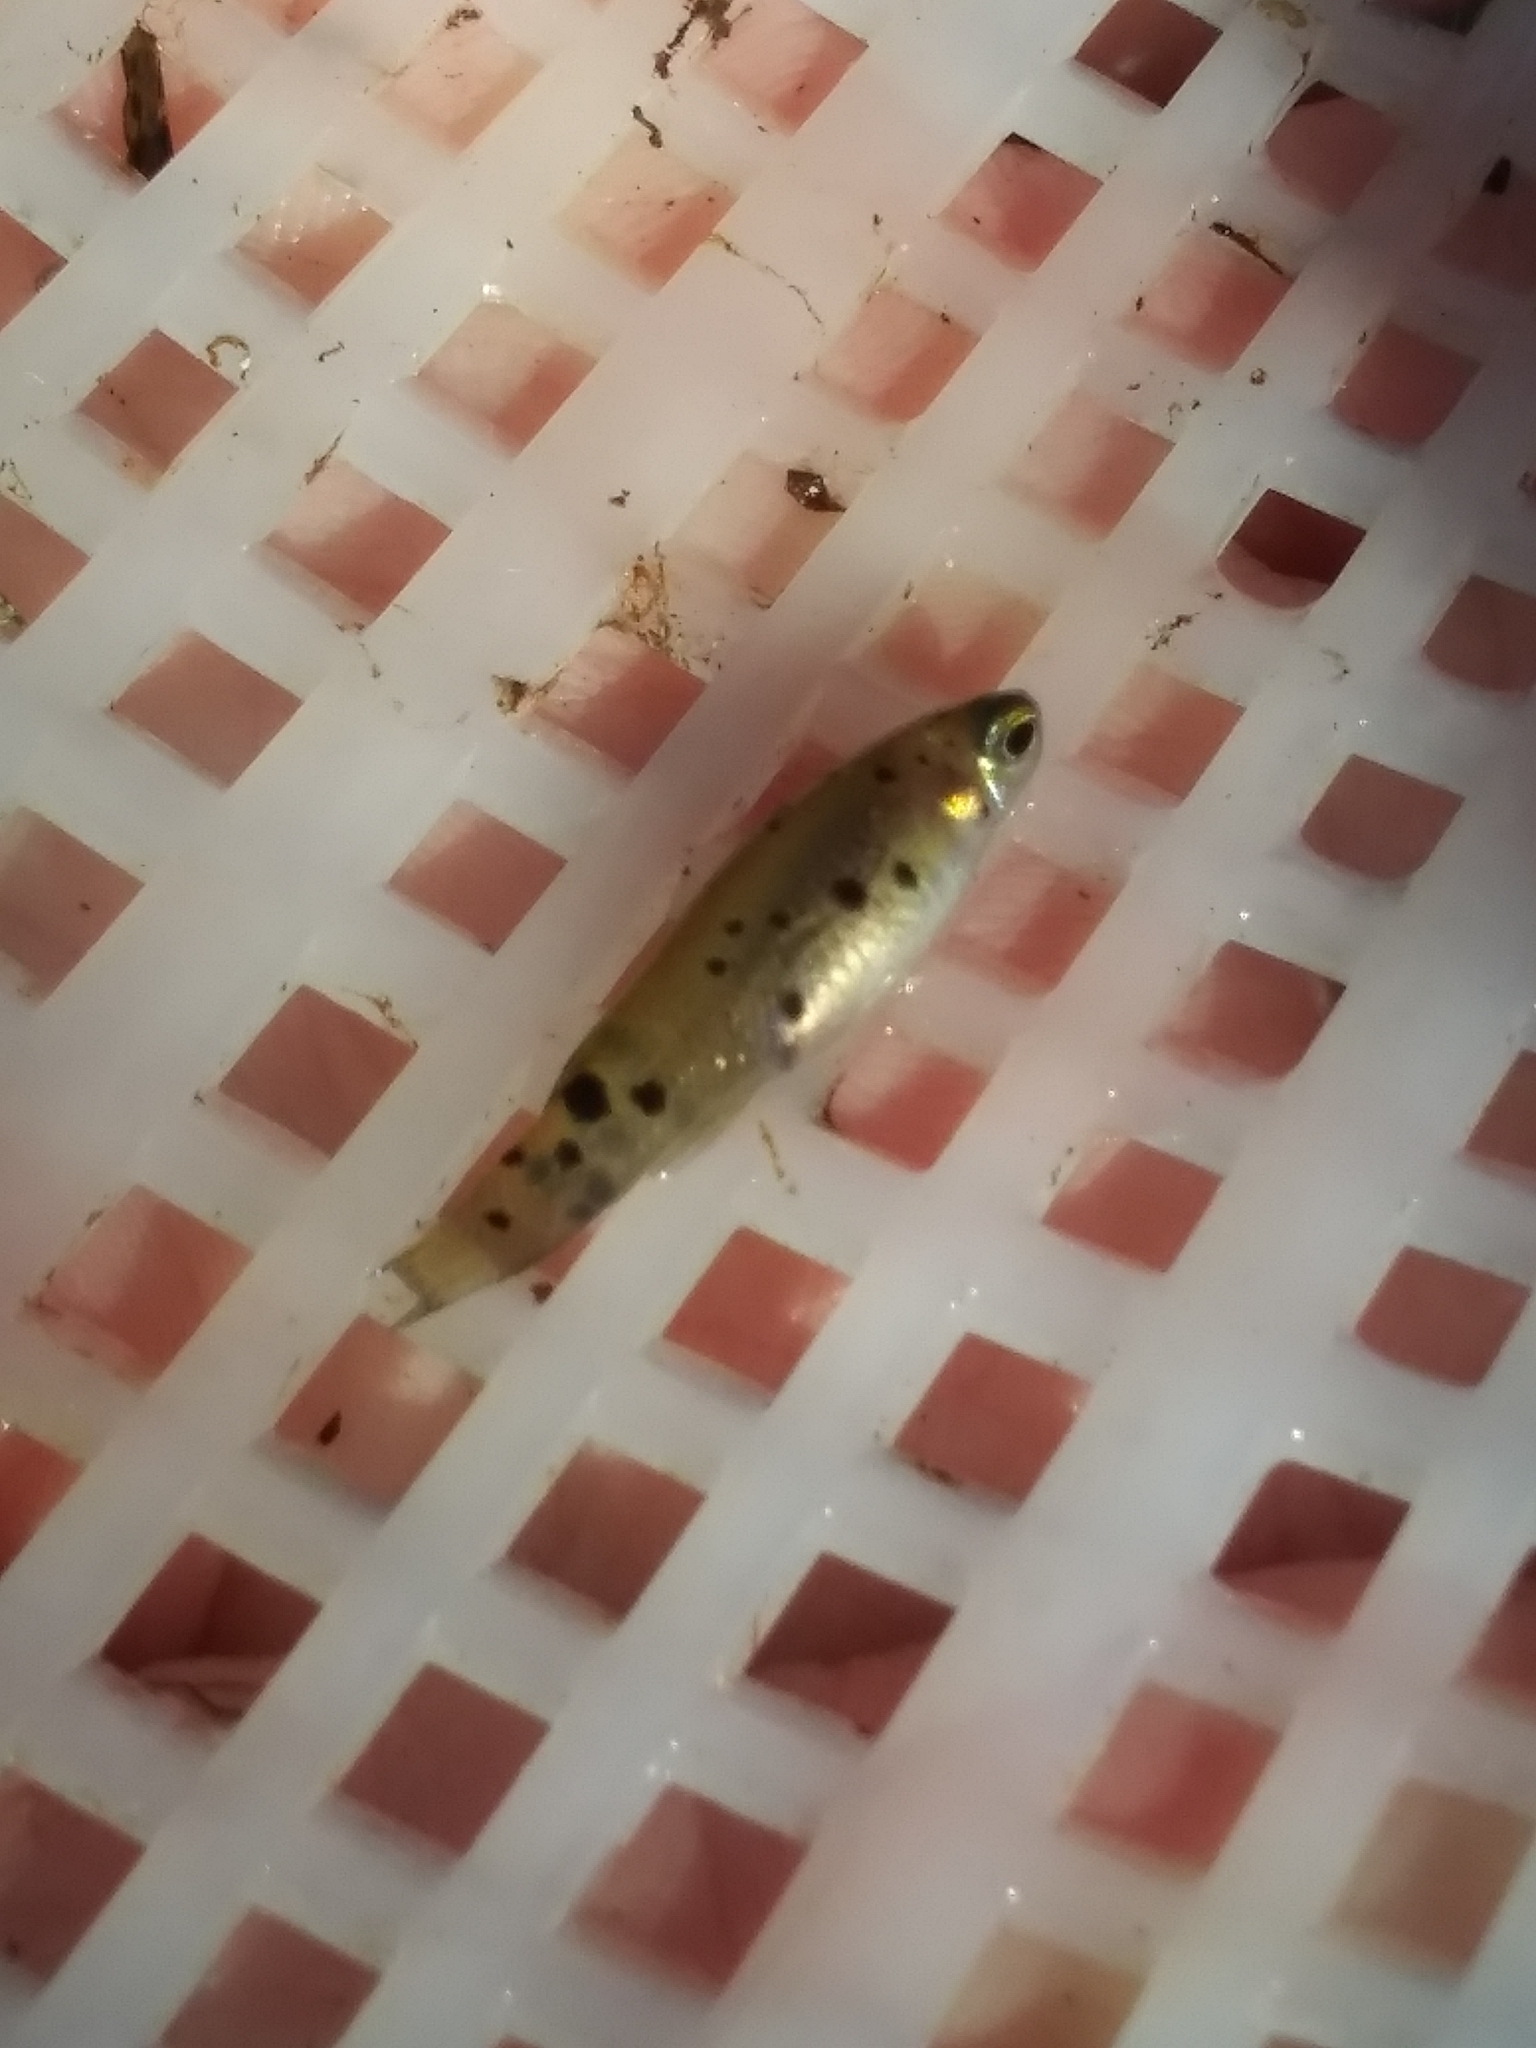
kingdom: Animalia
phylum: Chordata
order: Cyprinodontiformes
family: Fundulidae
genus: Fundulus
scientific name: Fundulus chrysotus
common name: Golden topminnow
